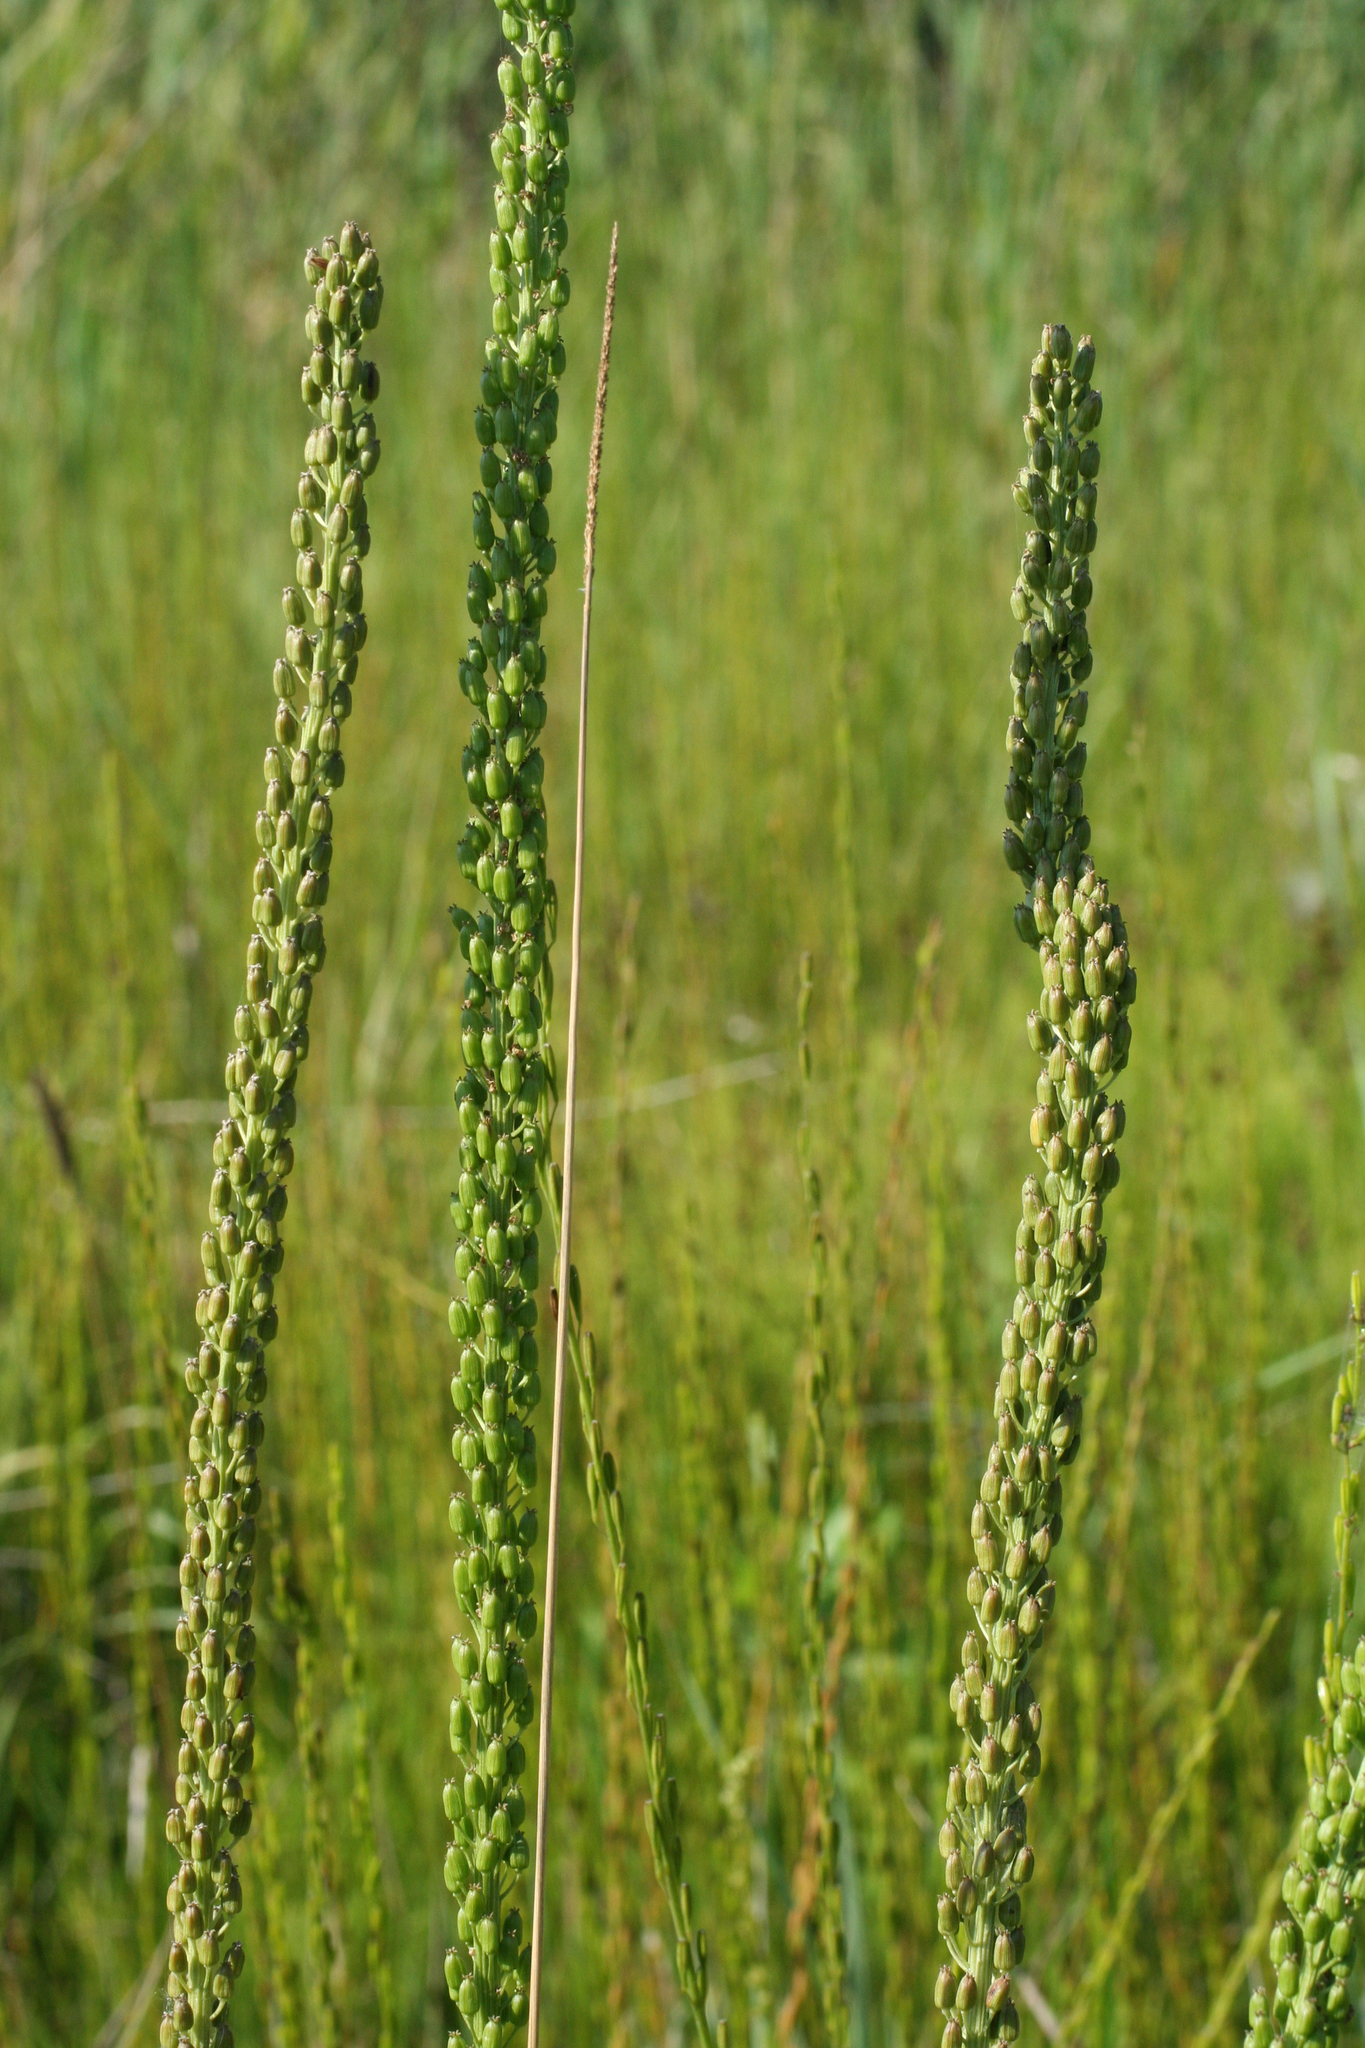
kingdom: Plantae
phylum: Tracheophyta
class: Liliopsida
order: Alismatales
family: Juncaginaceae
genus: Triglochin
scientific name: Triglochin maritima
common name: Sea arrowgrass
